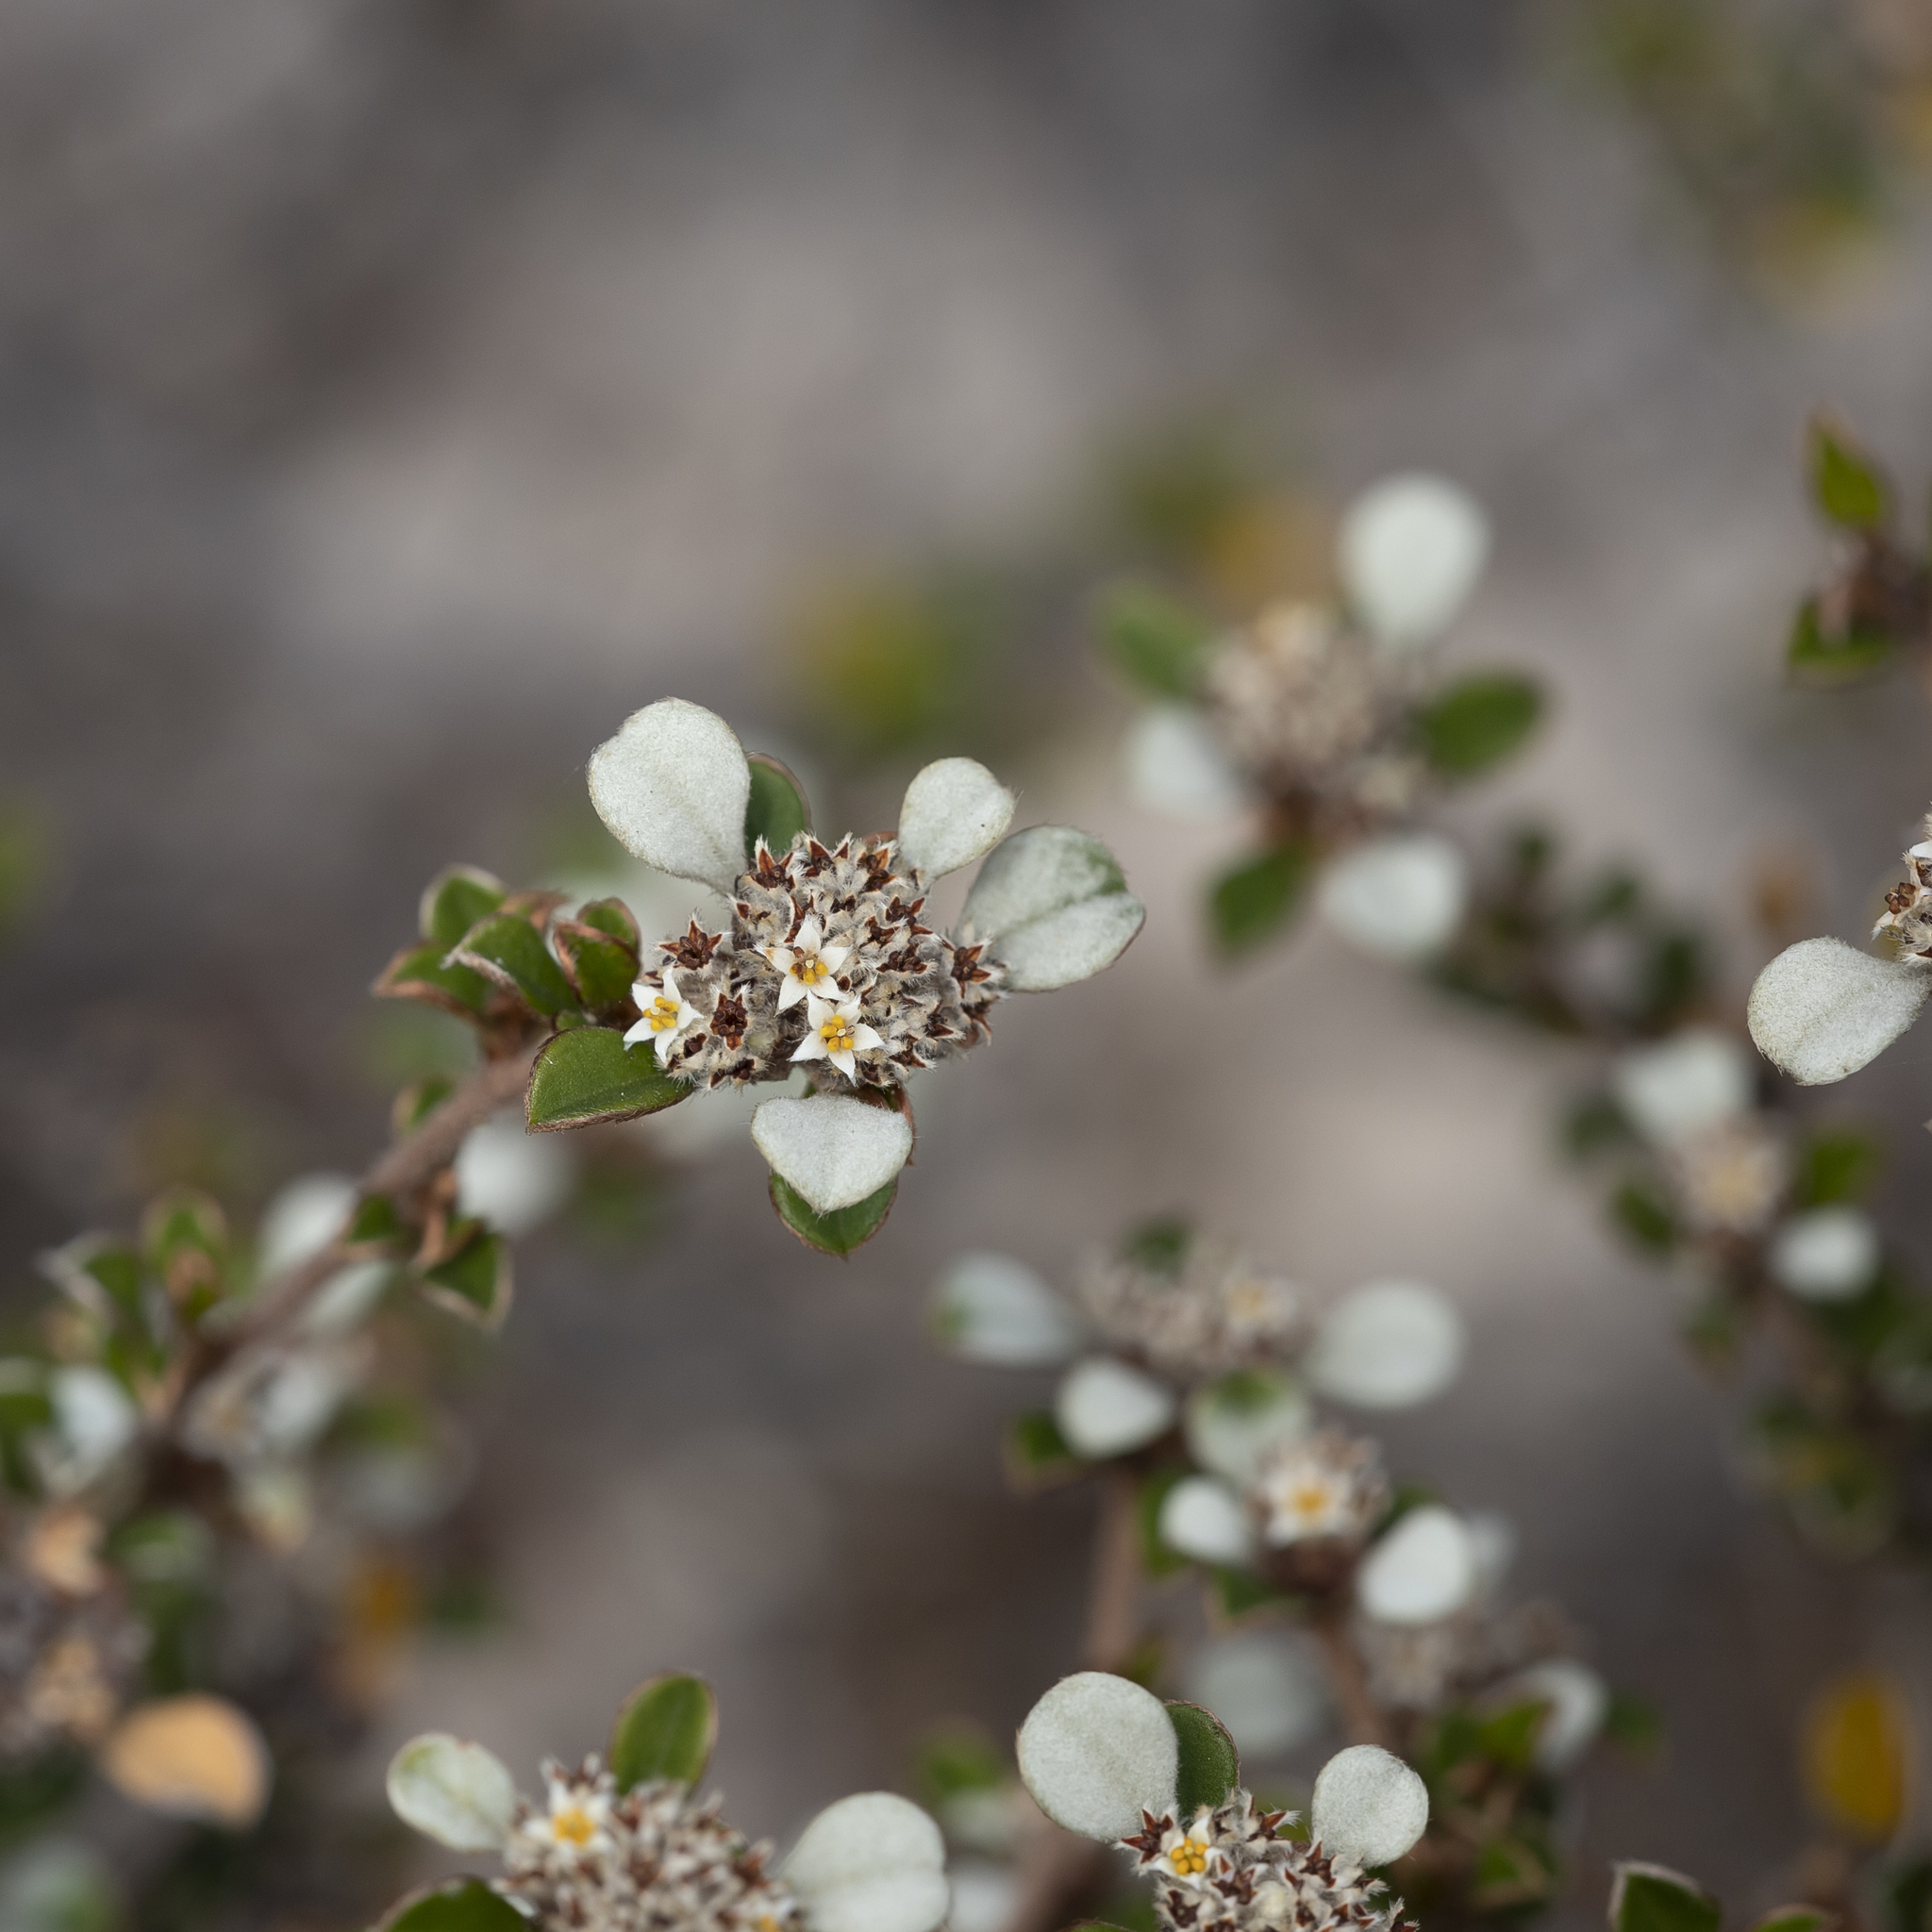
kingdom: Plantae
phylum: Tracheophyta
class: Magnoliopsida
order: Rosales
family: Rhamnaceae
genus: Cryptandra
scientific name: Cryptandra leucophracta
